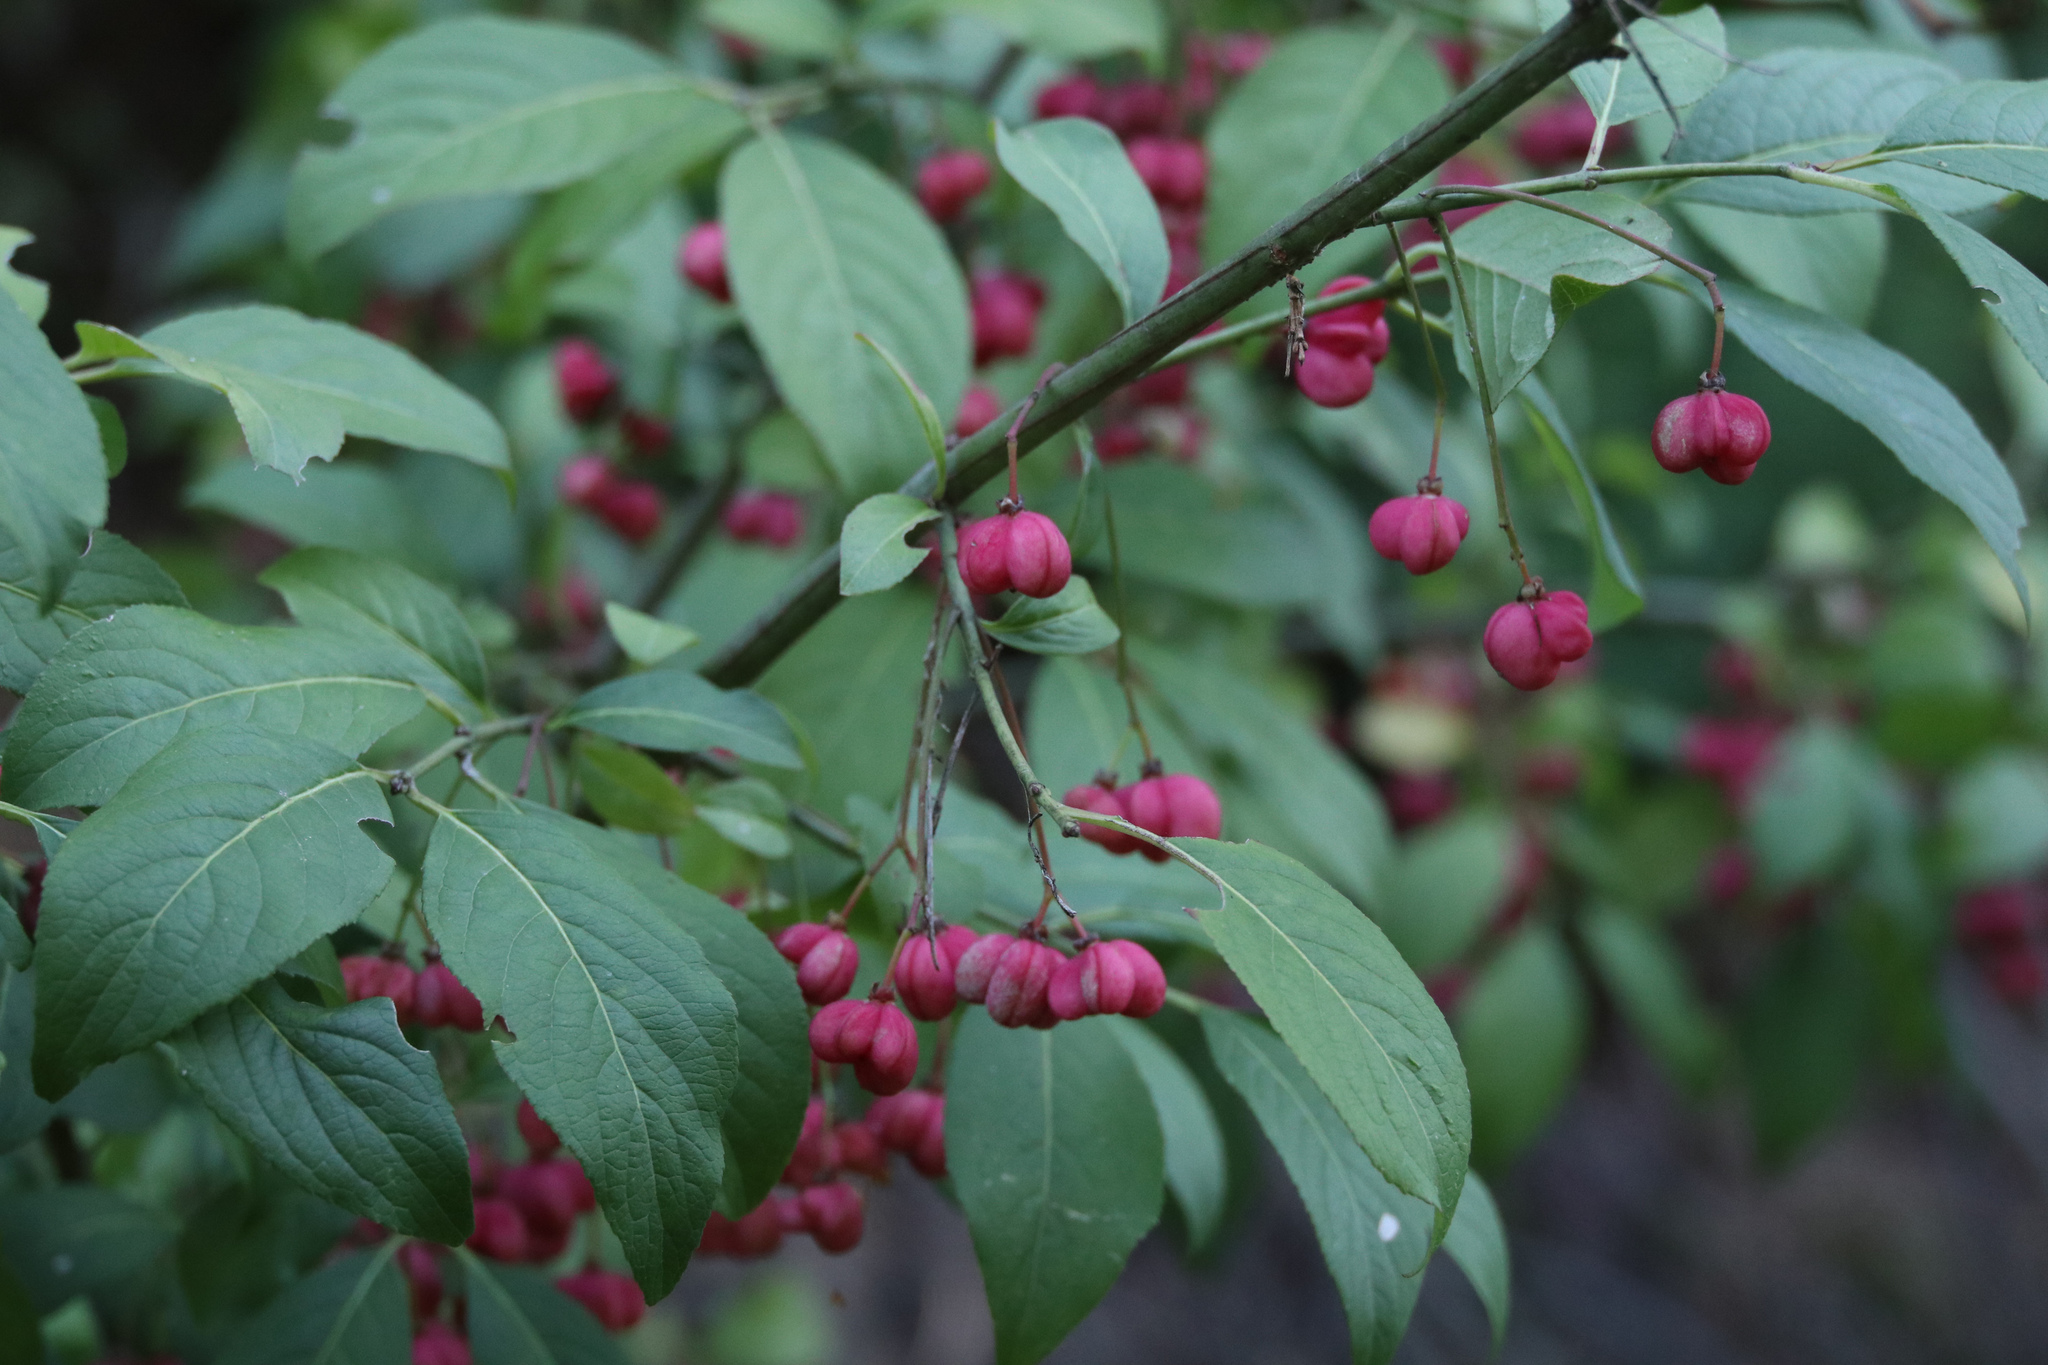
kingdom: Plantae
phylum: Tracheophyta
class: Magnoliopsida
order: Celastrales
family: Celastraceae
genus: Euonymus
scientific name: Euonymus europaeus
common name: Spindle
